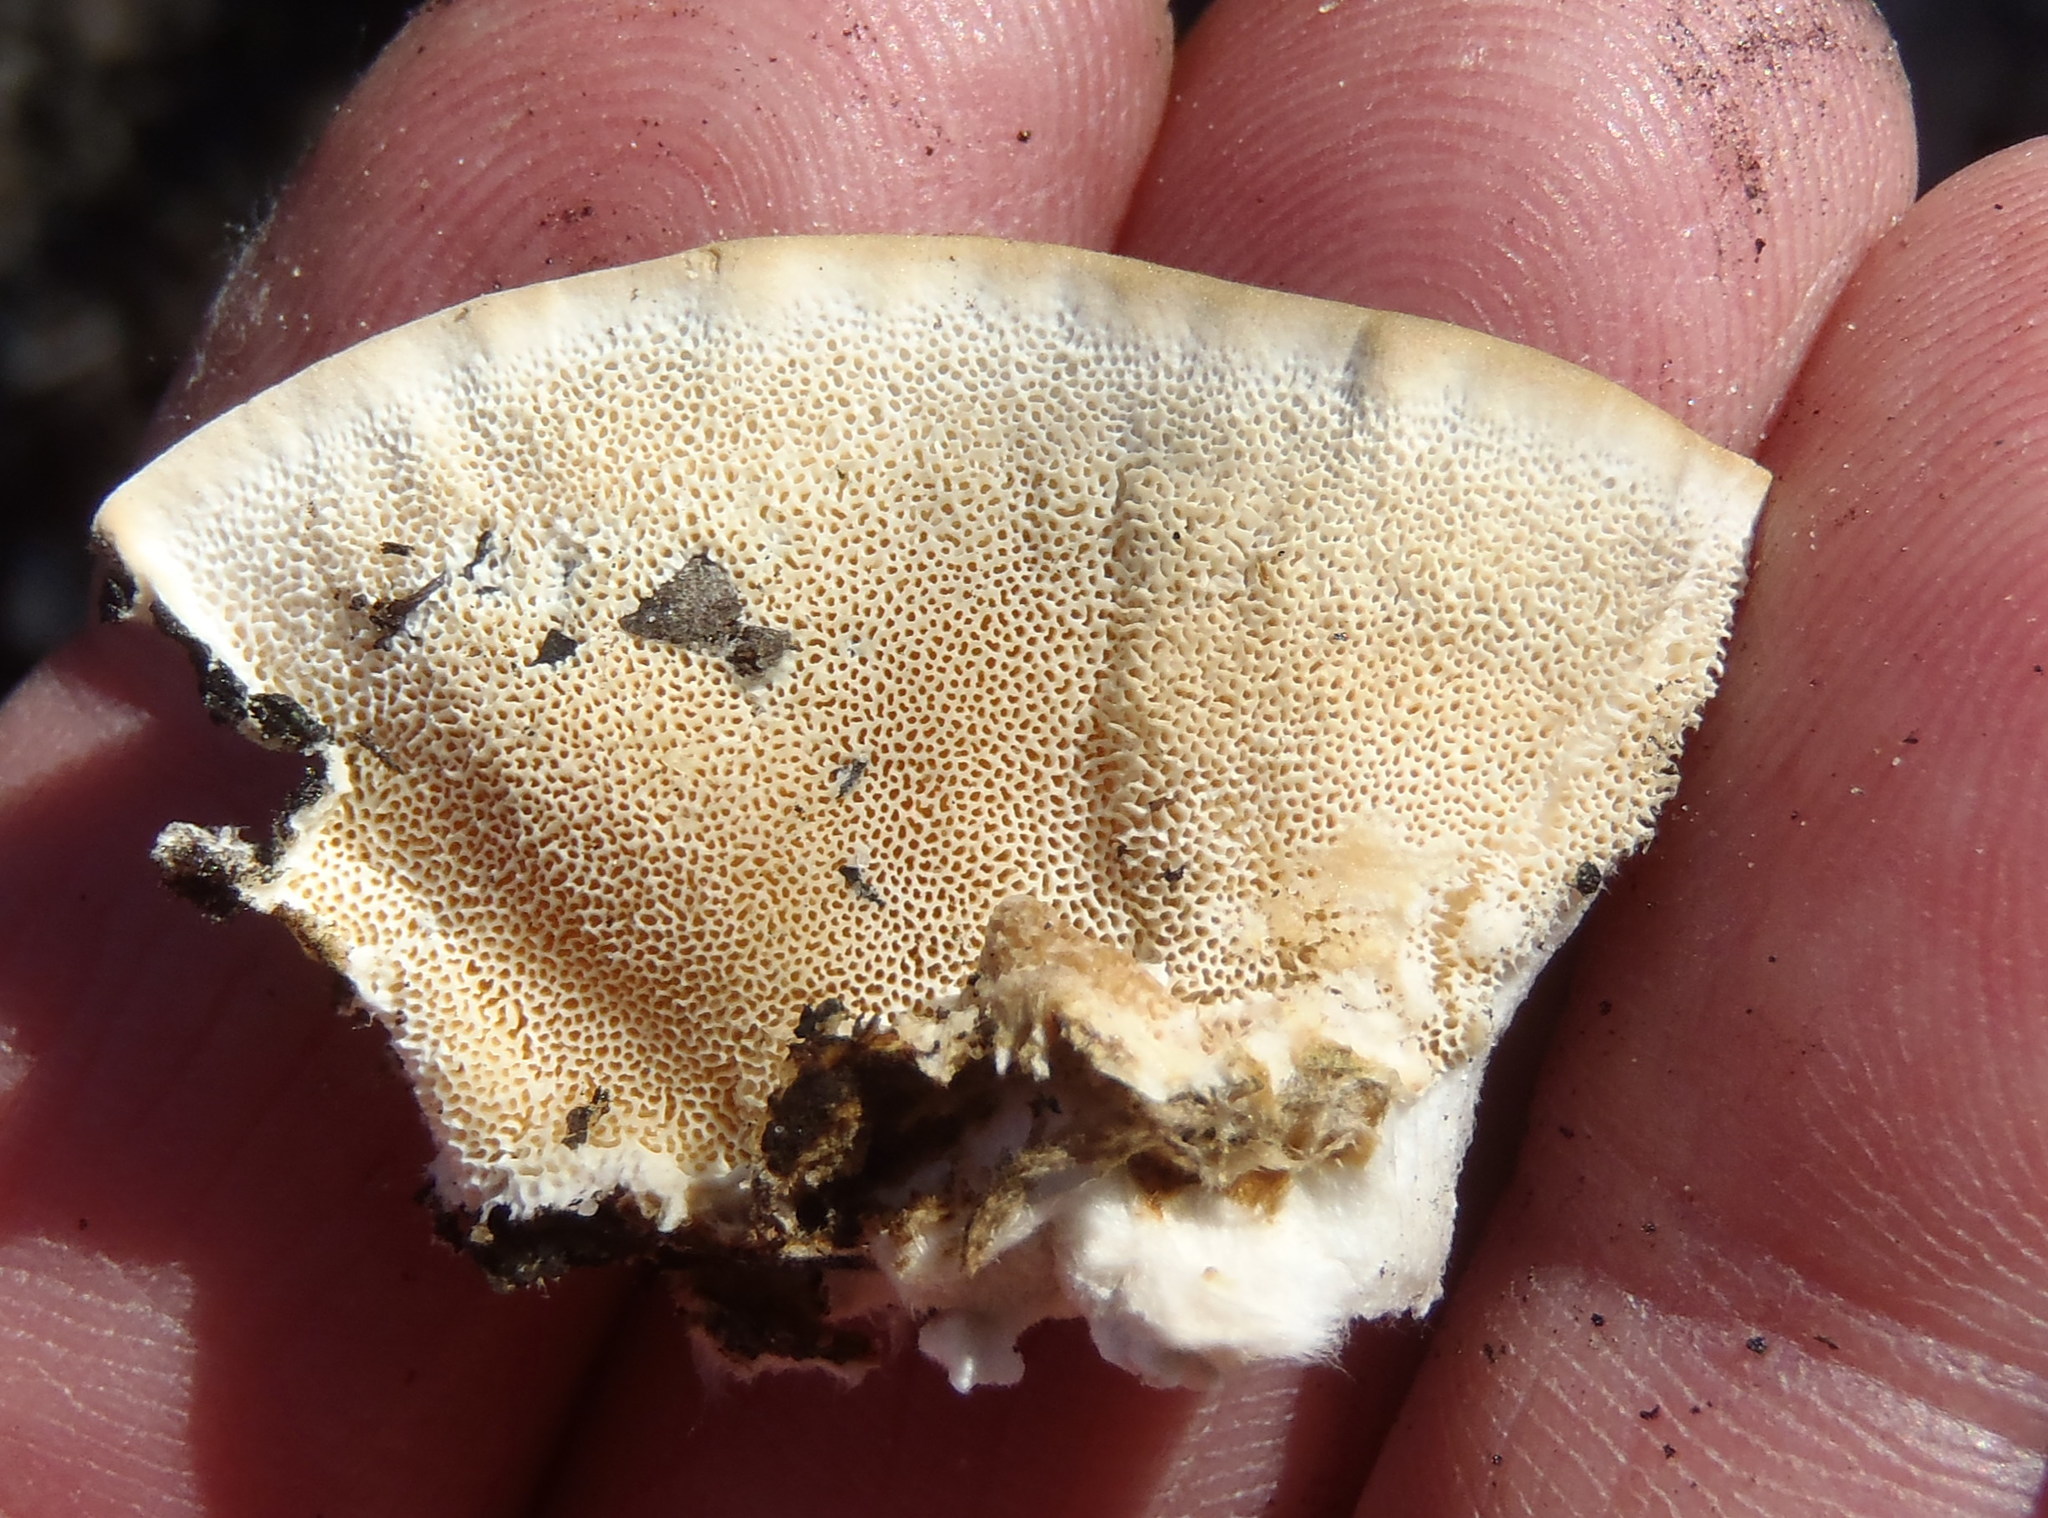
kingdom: Fungi
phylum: Basidiomycota
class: Agaricomycetes
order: Polyporales
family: Polyporaceae
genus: Trametes
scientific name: Trametes versicolor
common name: Turkeytail
